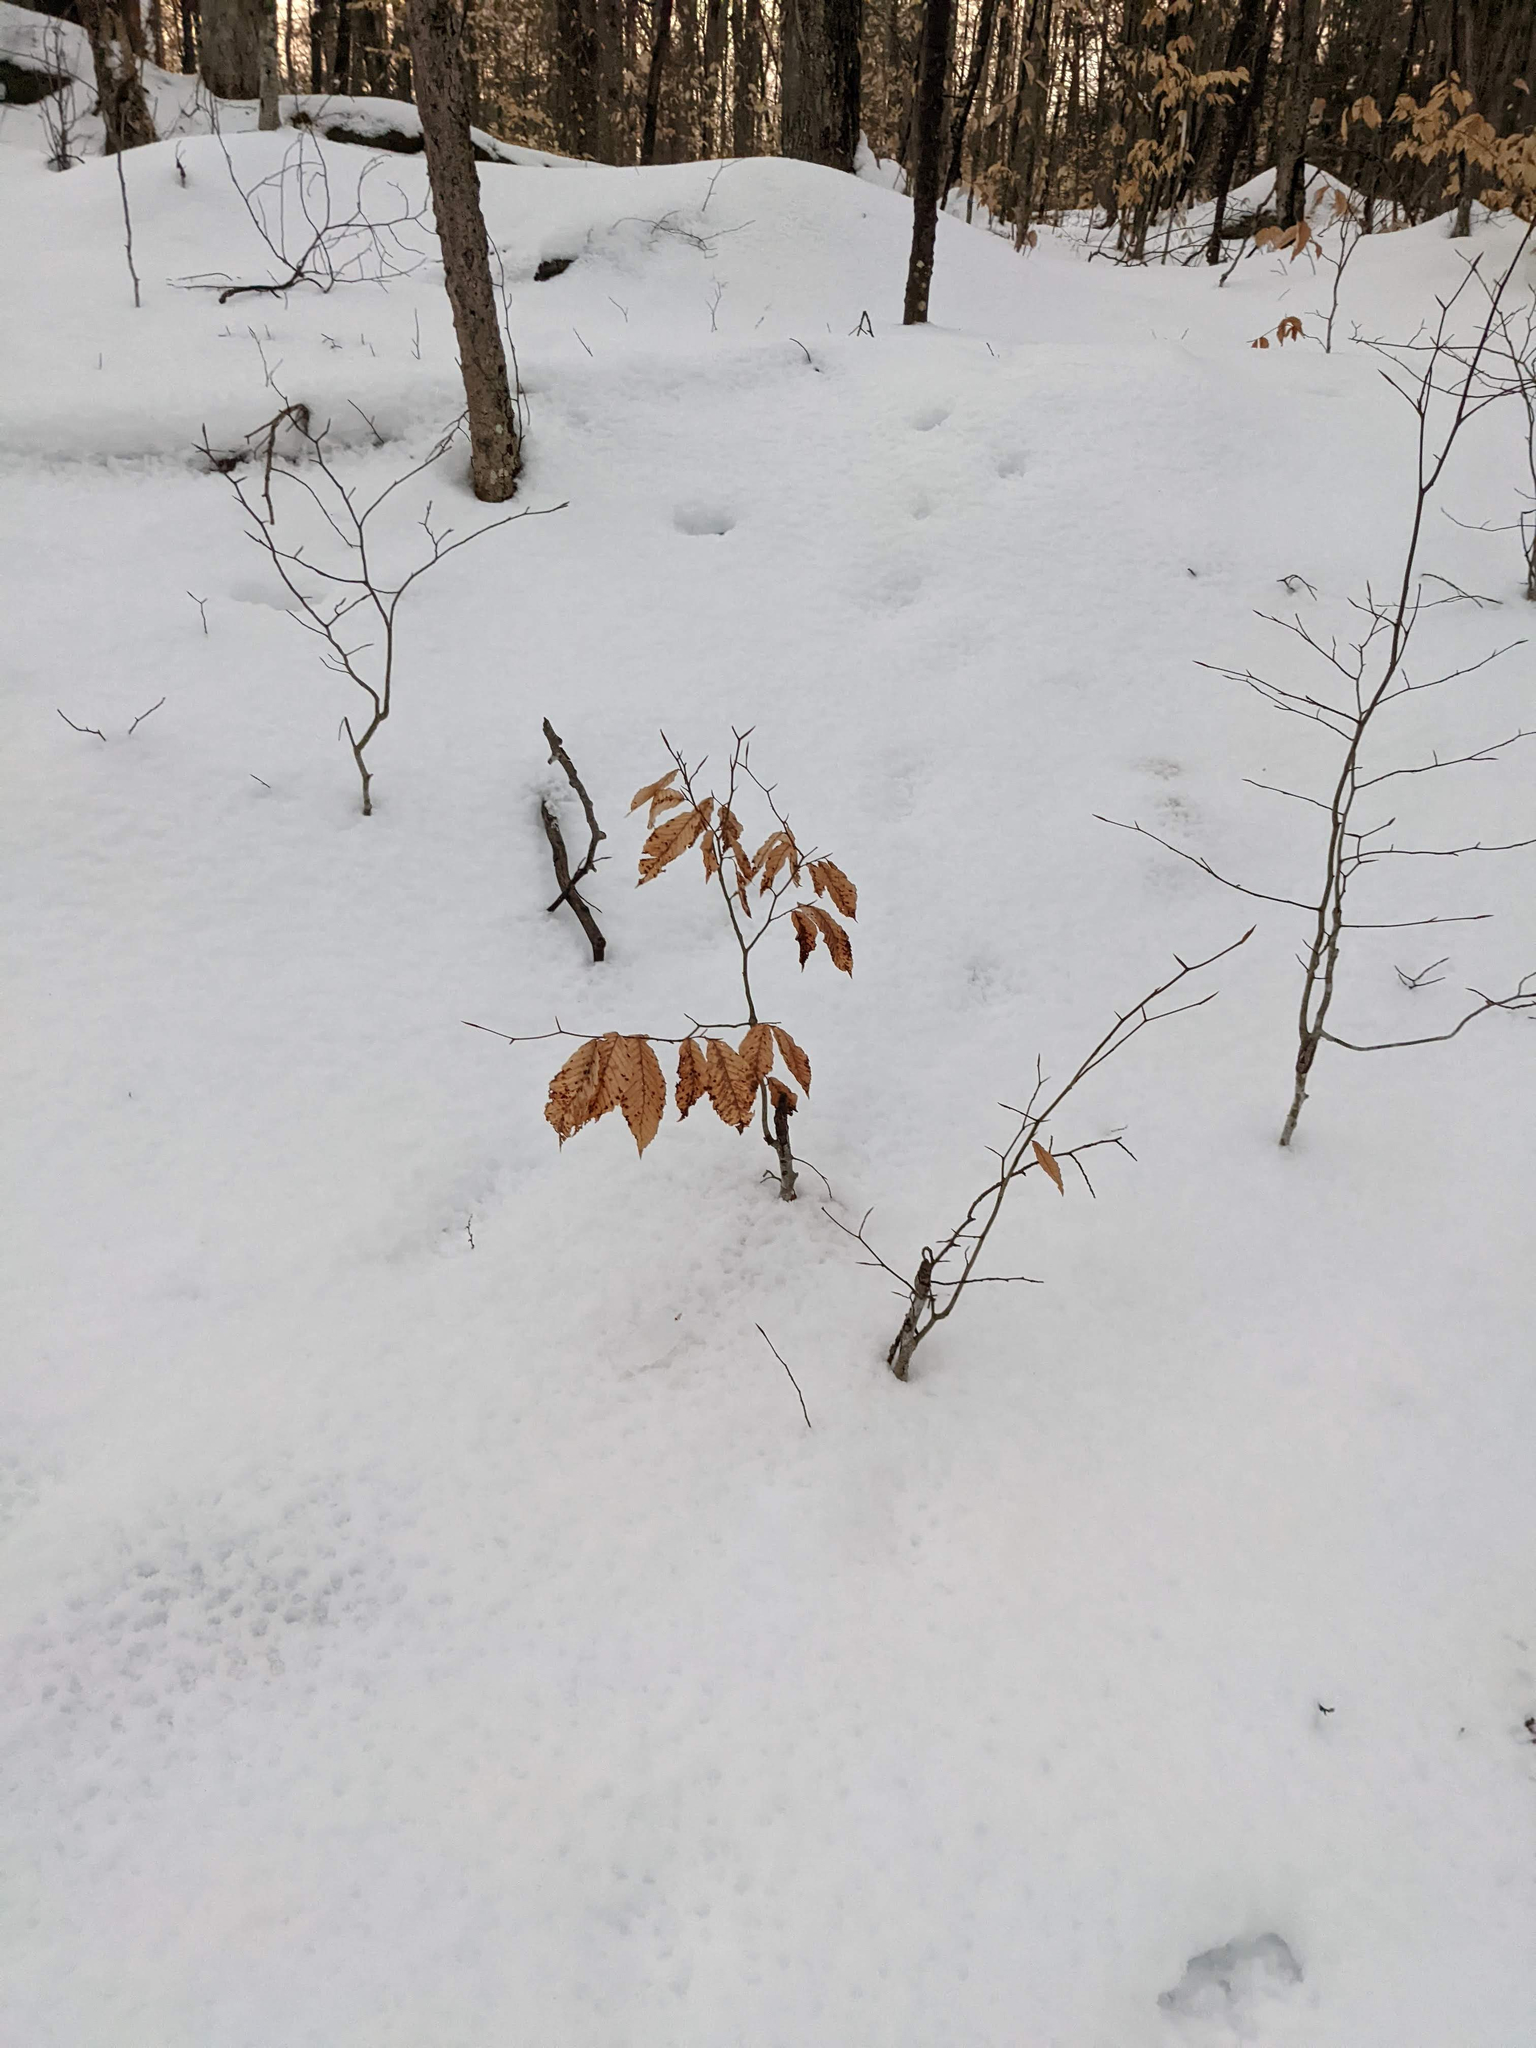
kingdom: Plantae
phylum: Tracheophyta
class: Magnoliopsida
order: Fagales
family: Fagaceae
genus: Fagus
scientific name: Fagus grandifolia
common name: American beech
